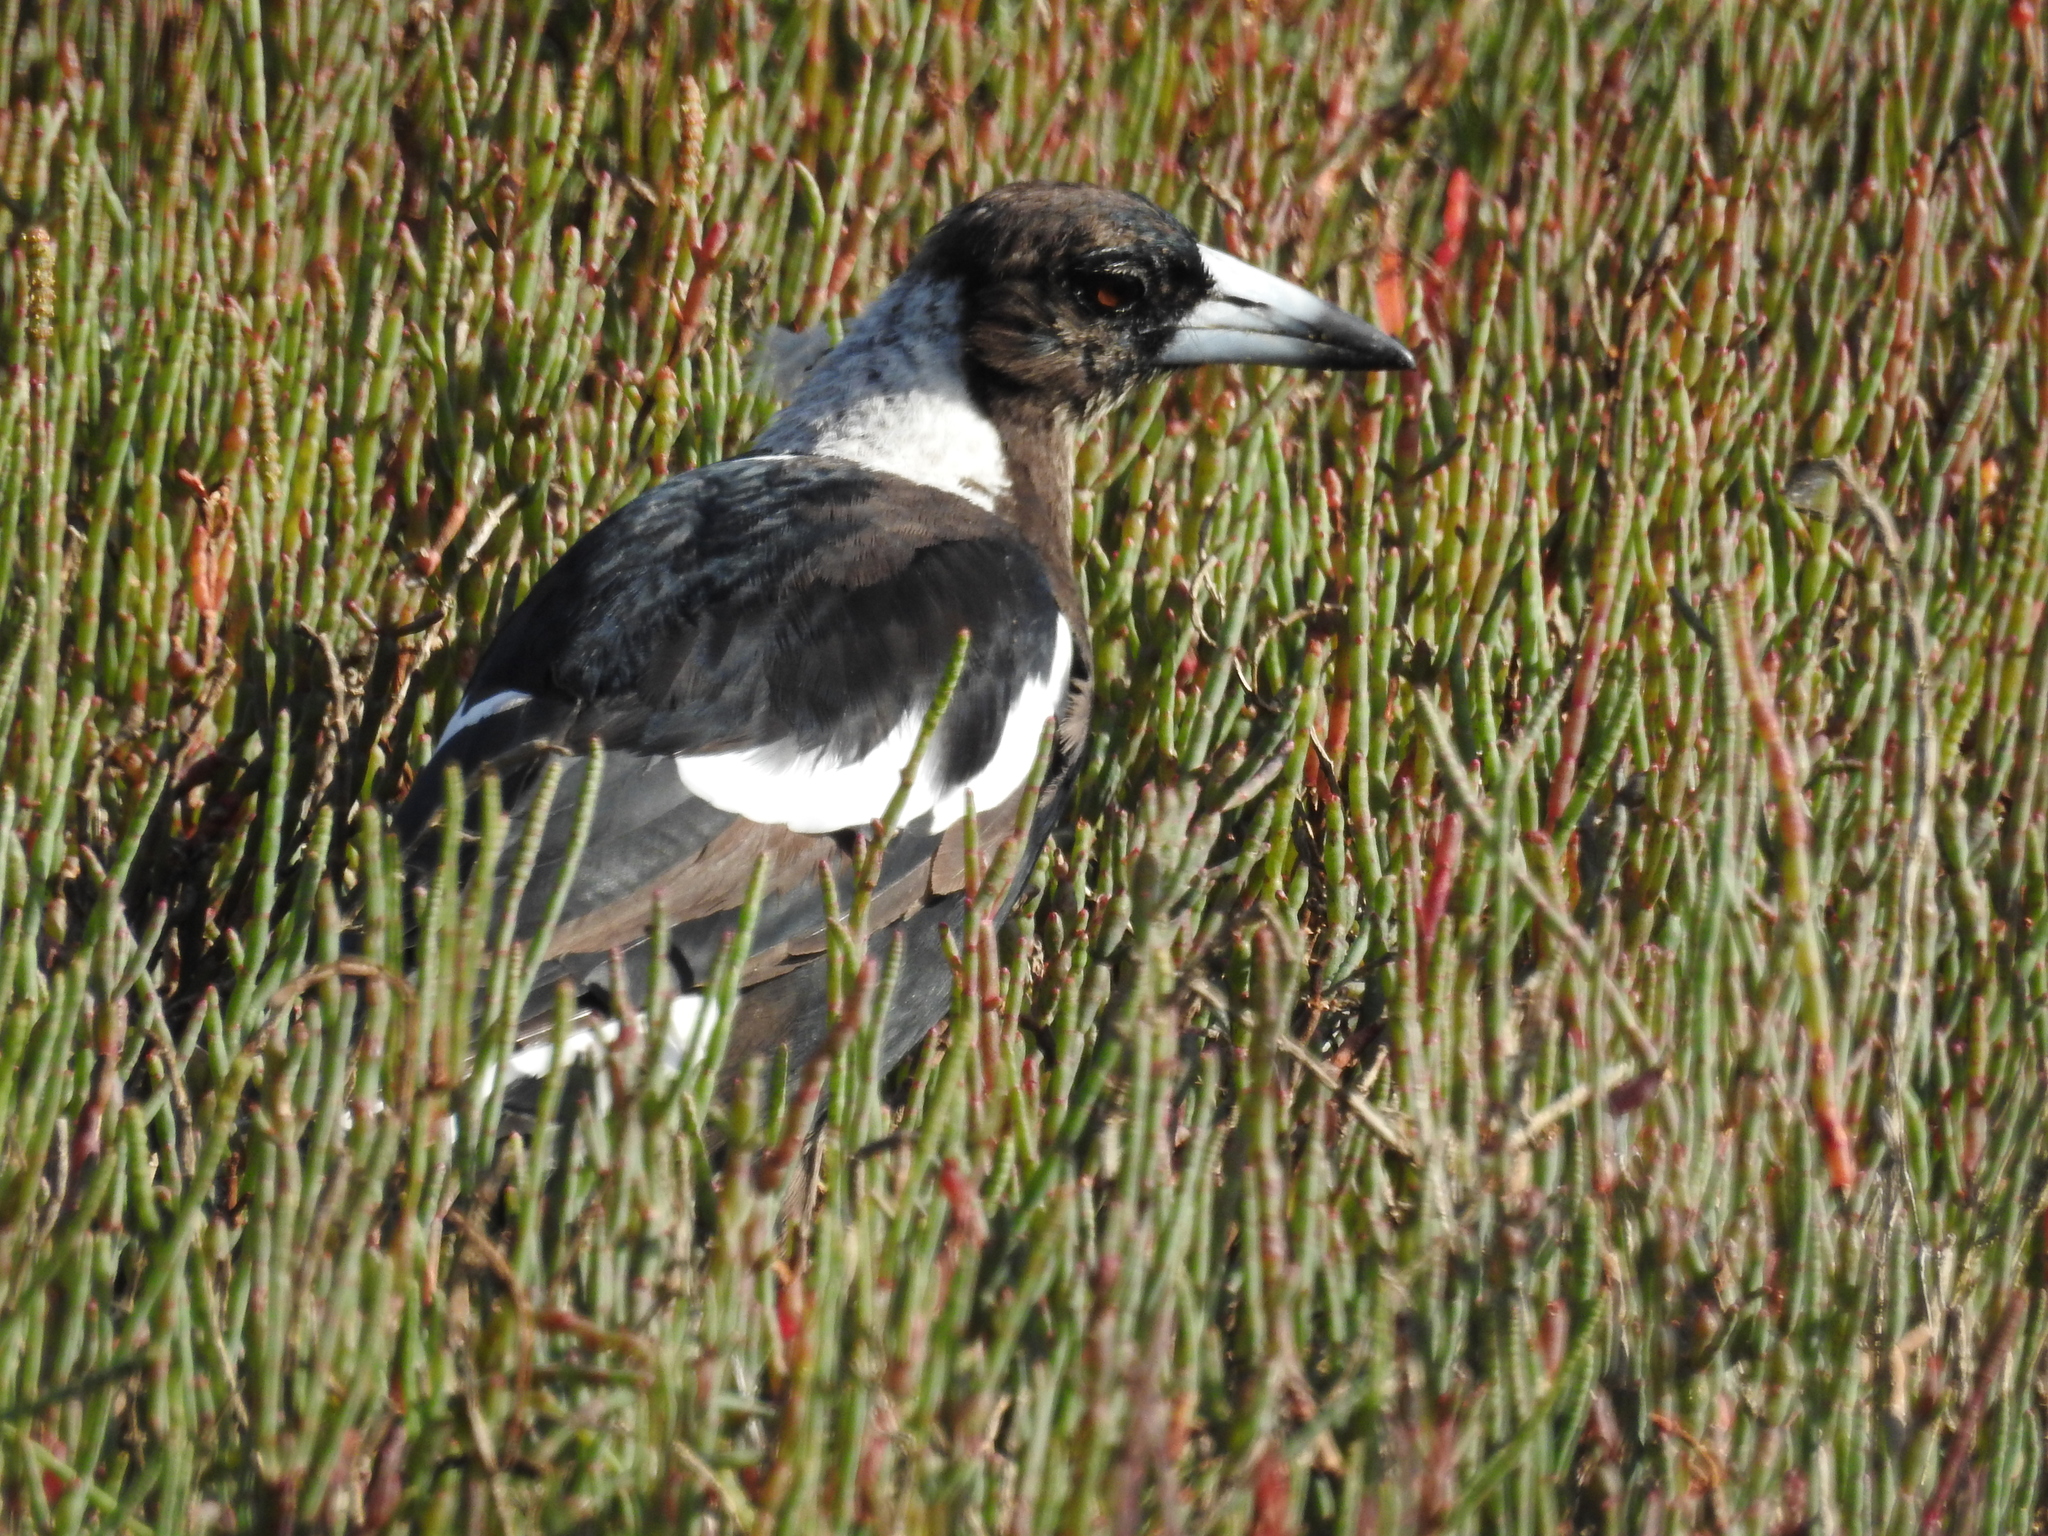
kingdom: Animalia
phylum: Chordata
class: Aves
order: Passeriformes
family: Cracticidae
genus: Gymnorhina
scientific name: Gymnorhina tibicen
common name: Australian magpie
